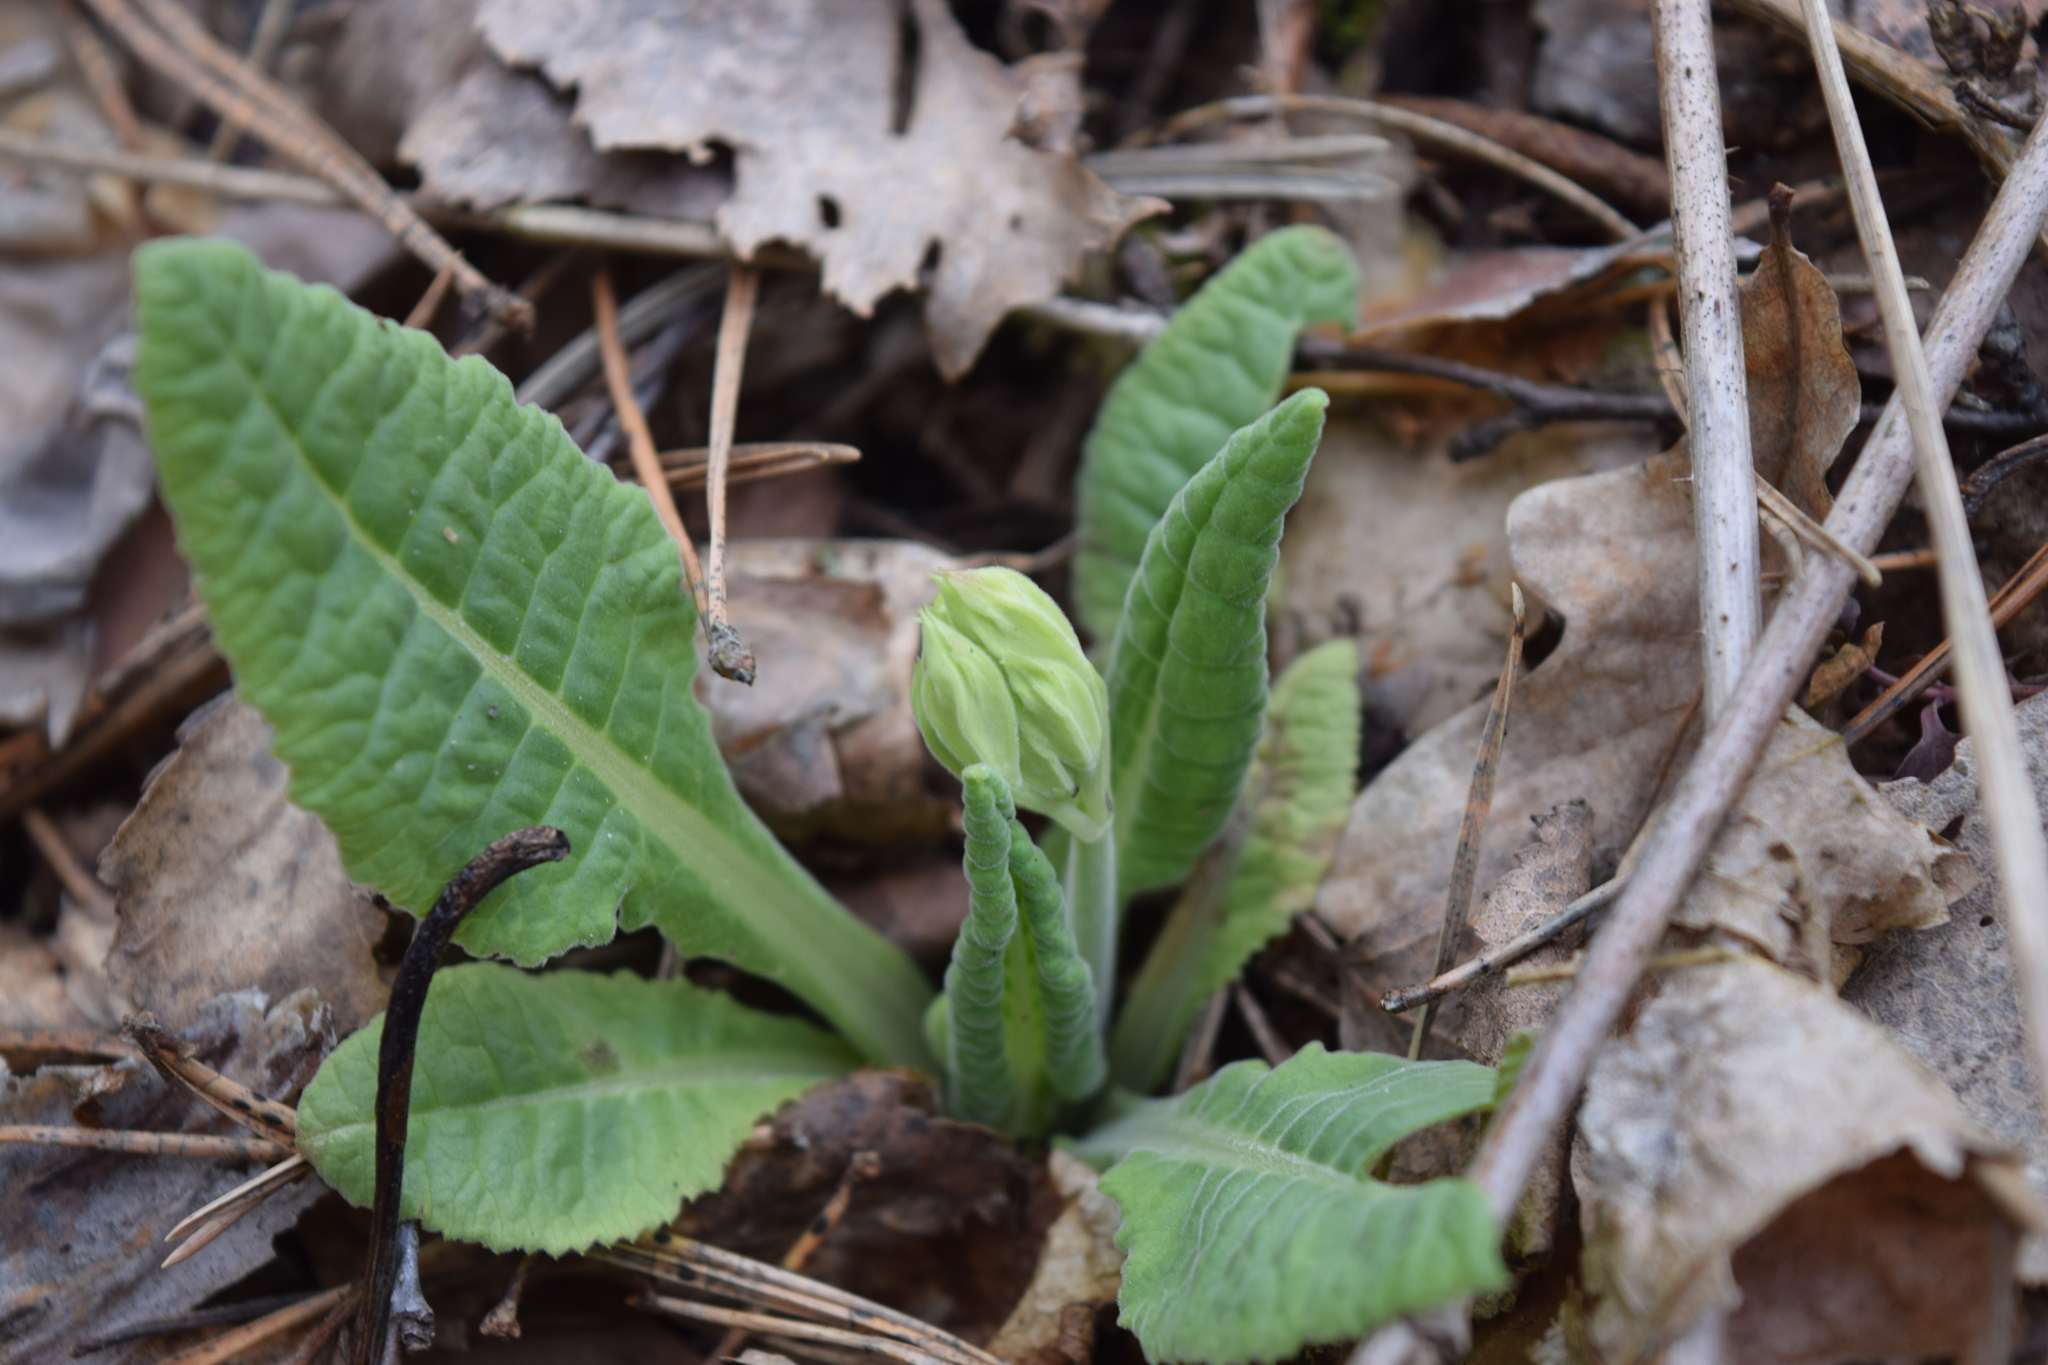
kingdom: Plantae
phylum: Tracheophyta
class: Magnoliopsida
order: Ericales
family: Primulaceae
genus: Primula
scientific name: Primula veris
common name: Cowslip
